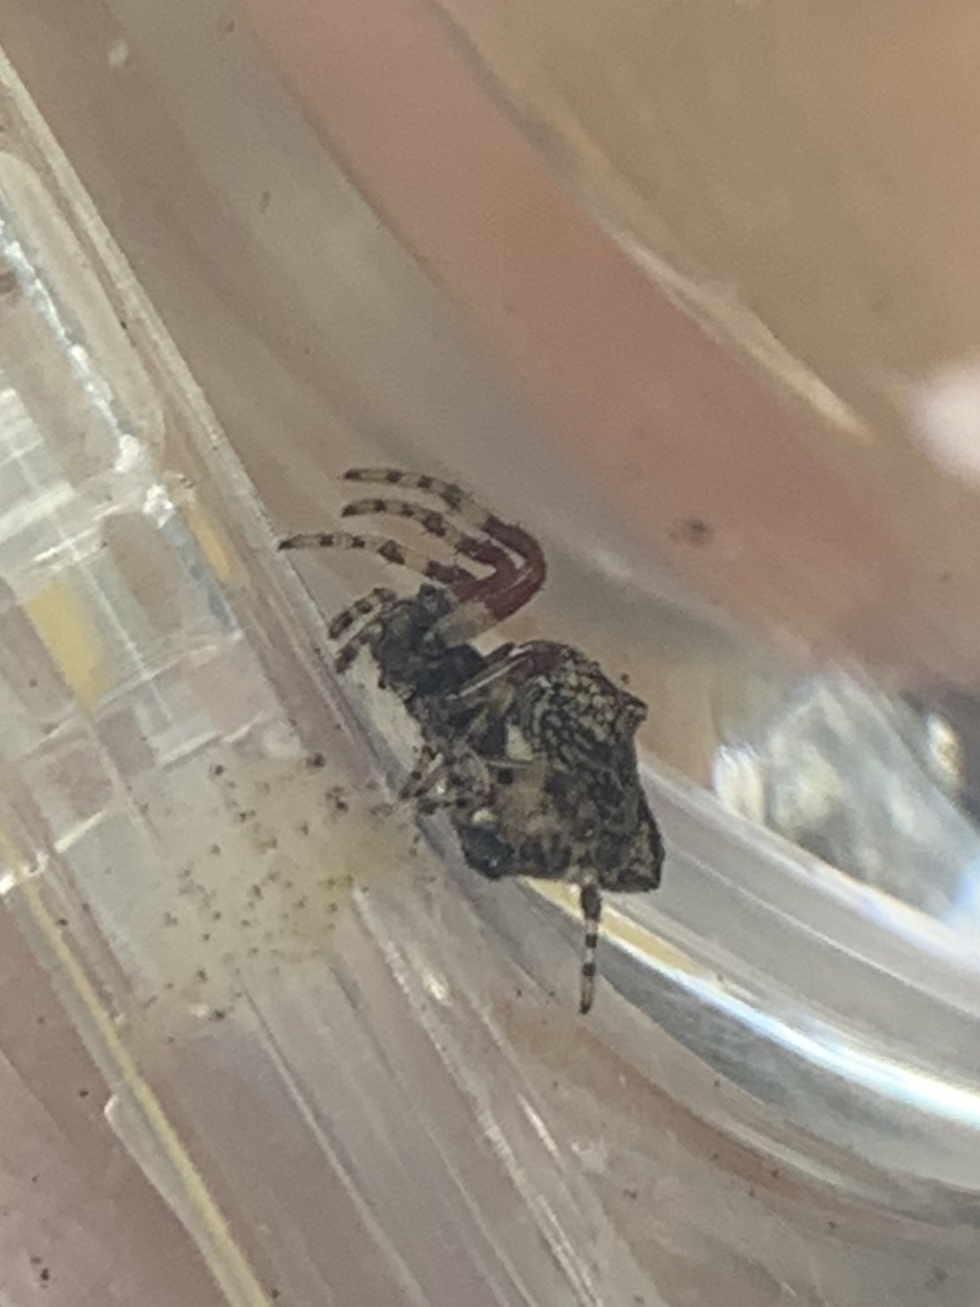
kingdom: Animalia
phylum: Arthropoda
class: Arachnida
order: Araneae
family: Araneidae
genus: Cyclosa
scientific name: Cyclosa walckenaeri
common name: Orb weavers
